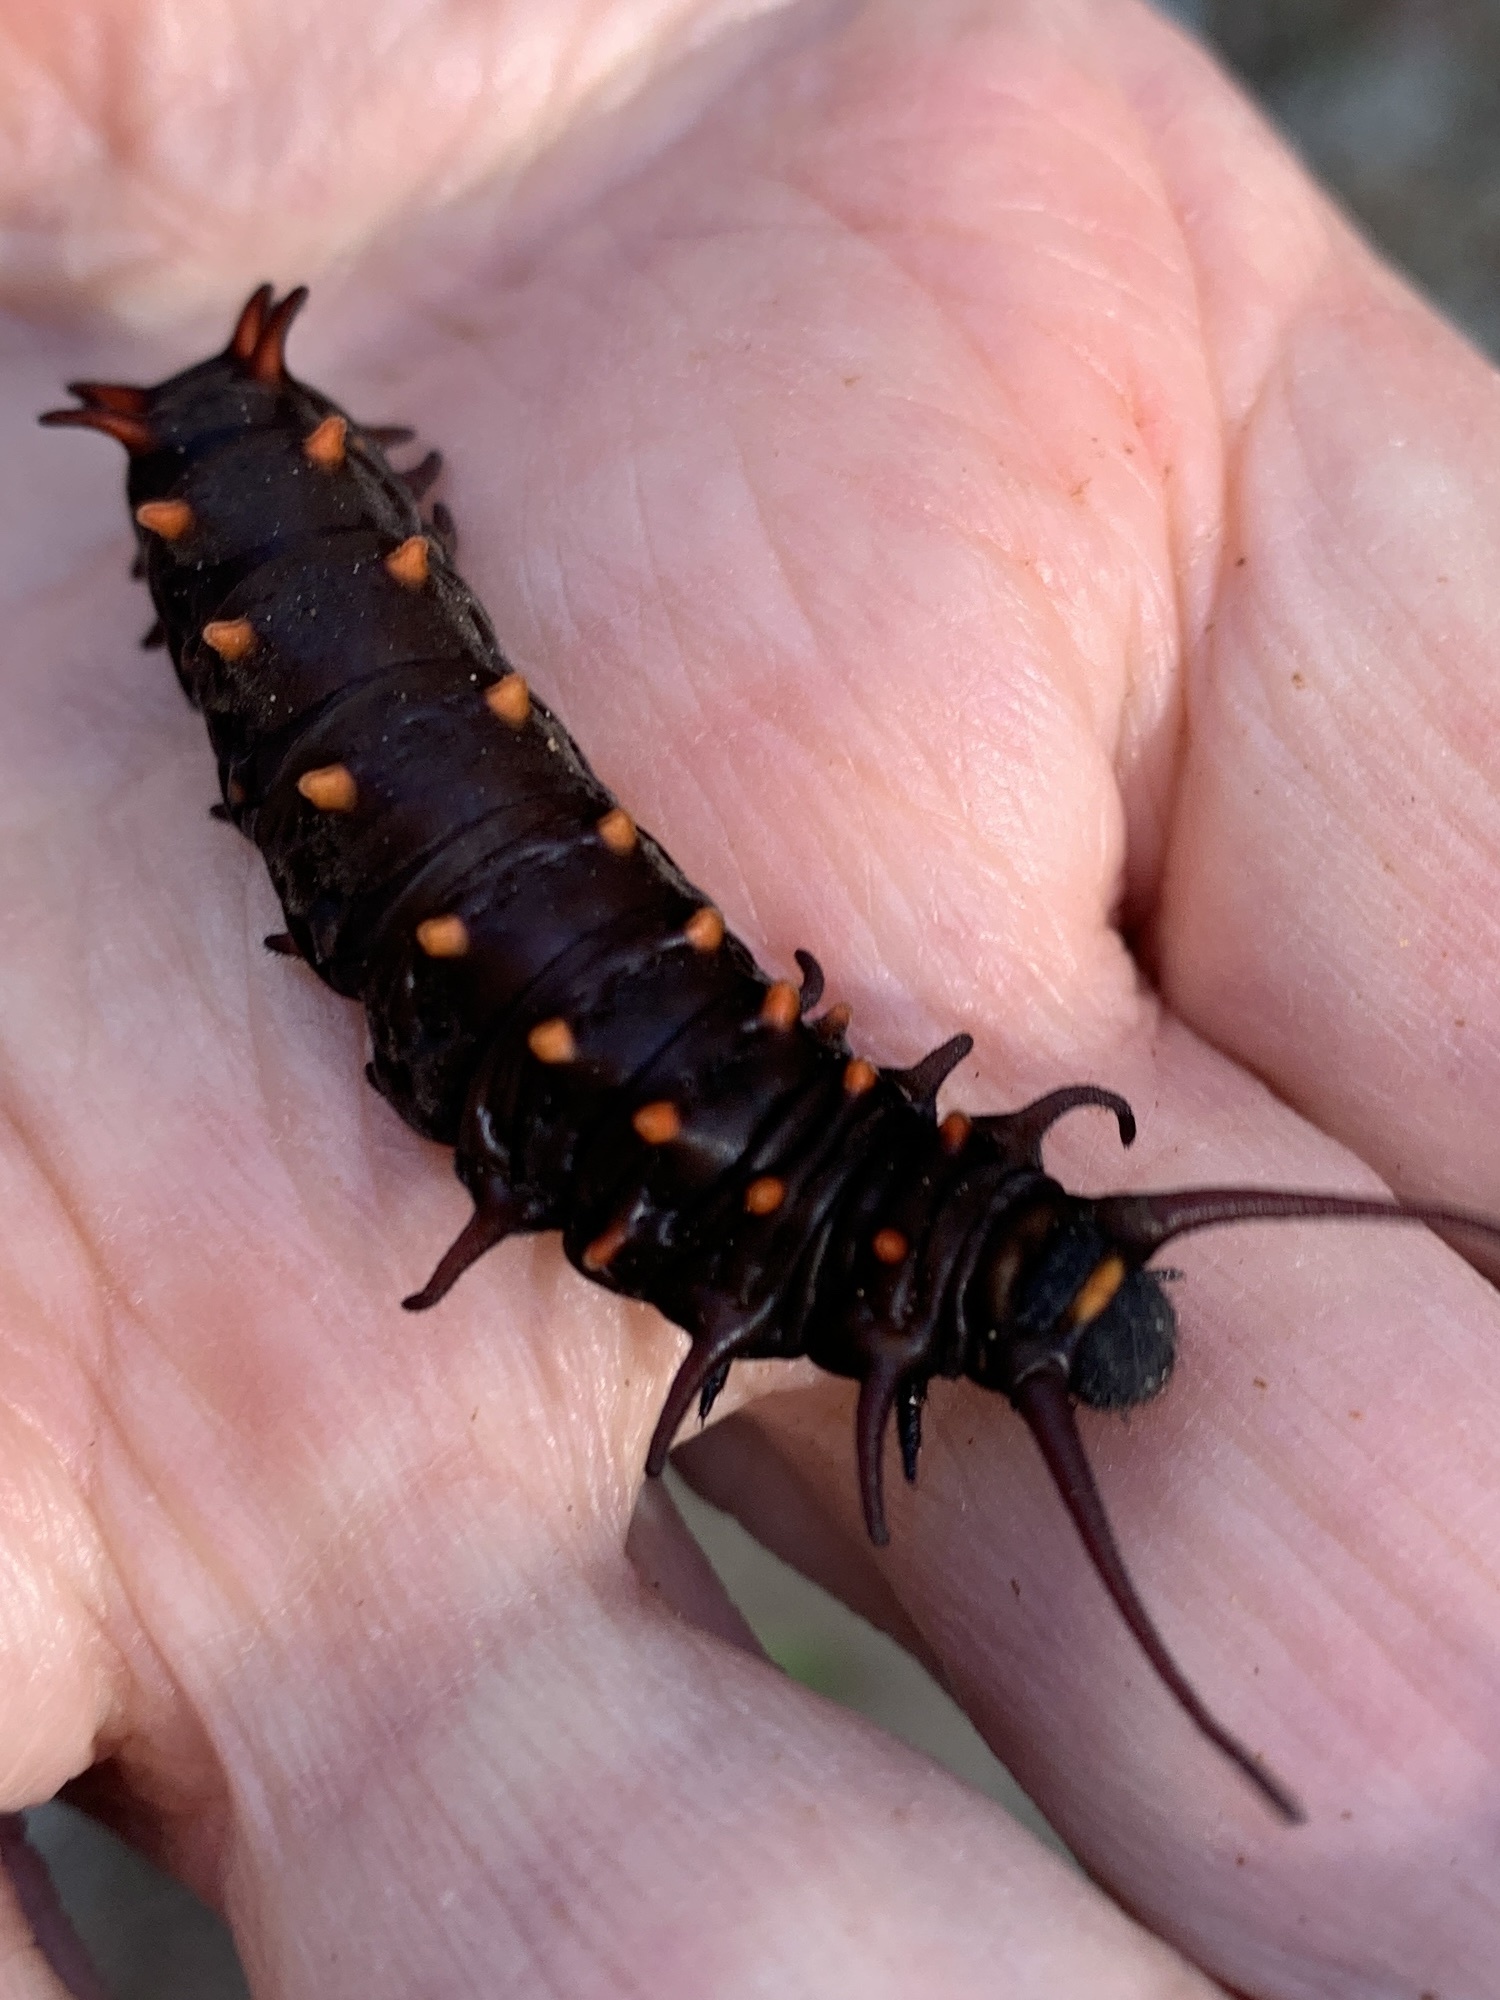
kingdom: Animalia
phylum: Arthropoda
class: Insecta
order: Lepidoptera
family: Papilionidae
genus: Battus
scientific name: Battus philenor
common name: Pipevine swallowtail
